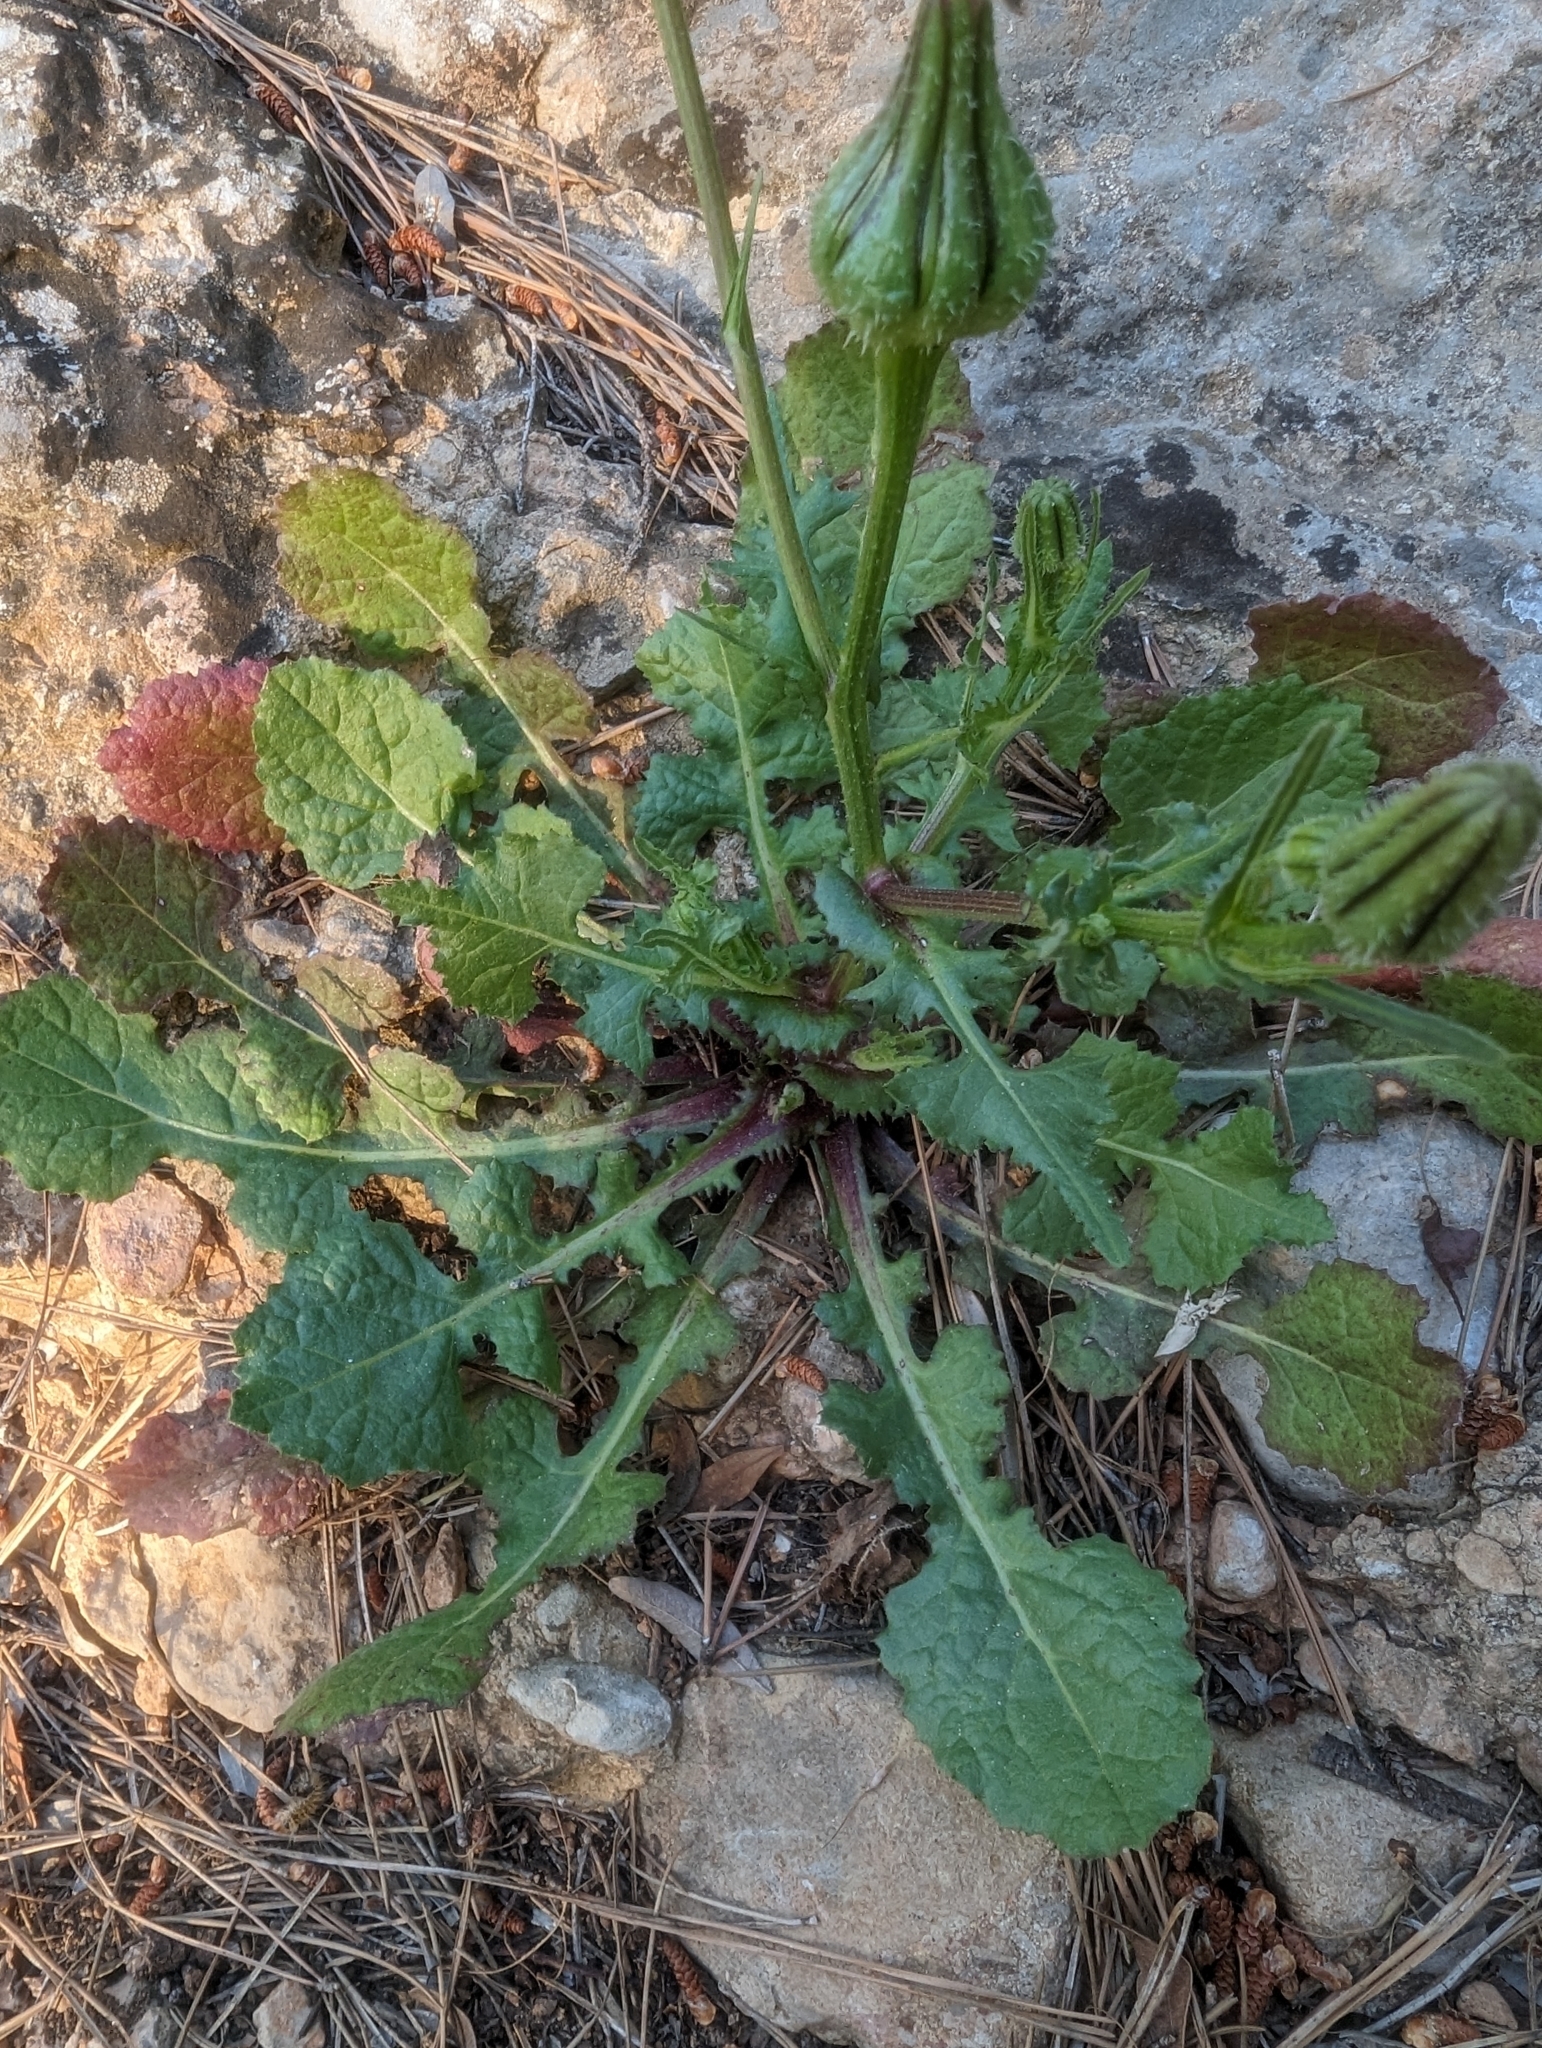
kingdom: Plantae
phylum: Tracheophyta
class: Magnoliopsida
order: Asterales
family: Asteraceae
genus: Urospermum
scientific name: Urospermum picroides
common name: False hawkbit
